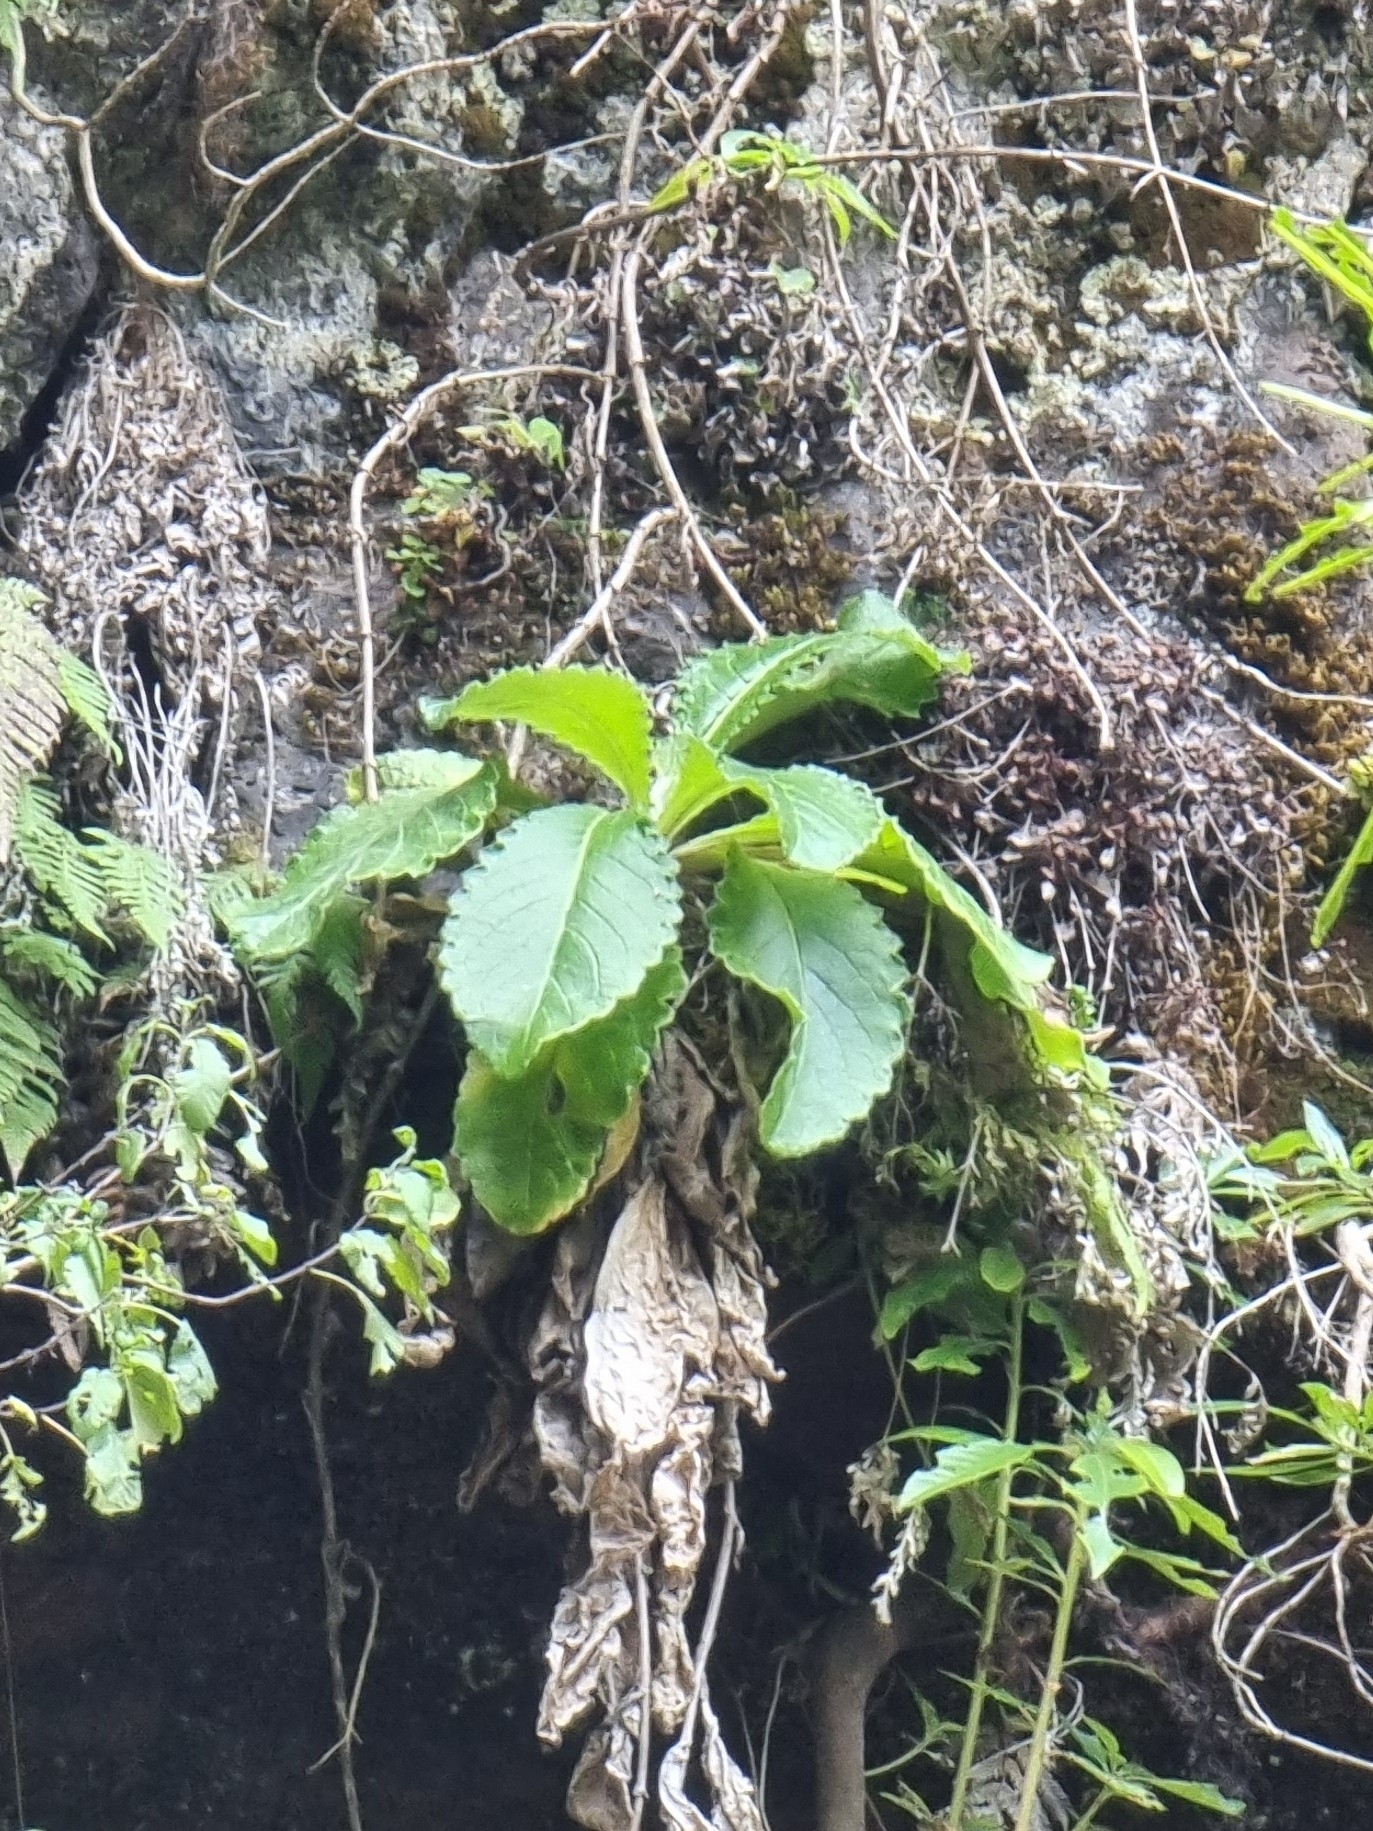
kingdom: Plantae
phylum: Tracheophyta
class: Magnoliopsida
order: Asterales
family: Asteraceae
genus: Cirsium
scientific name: Cirsium latifolium
